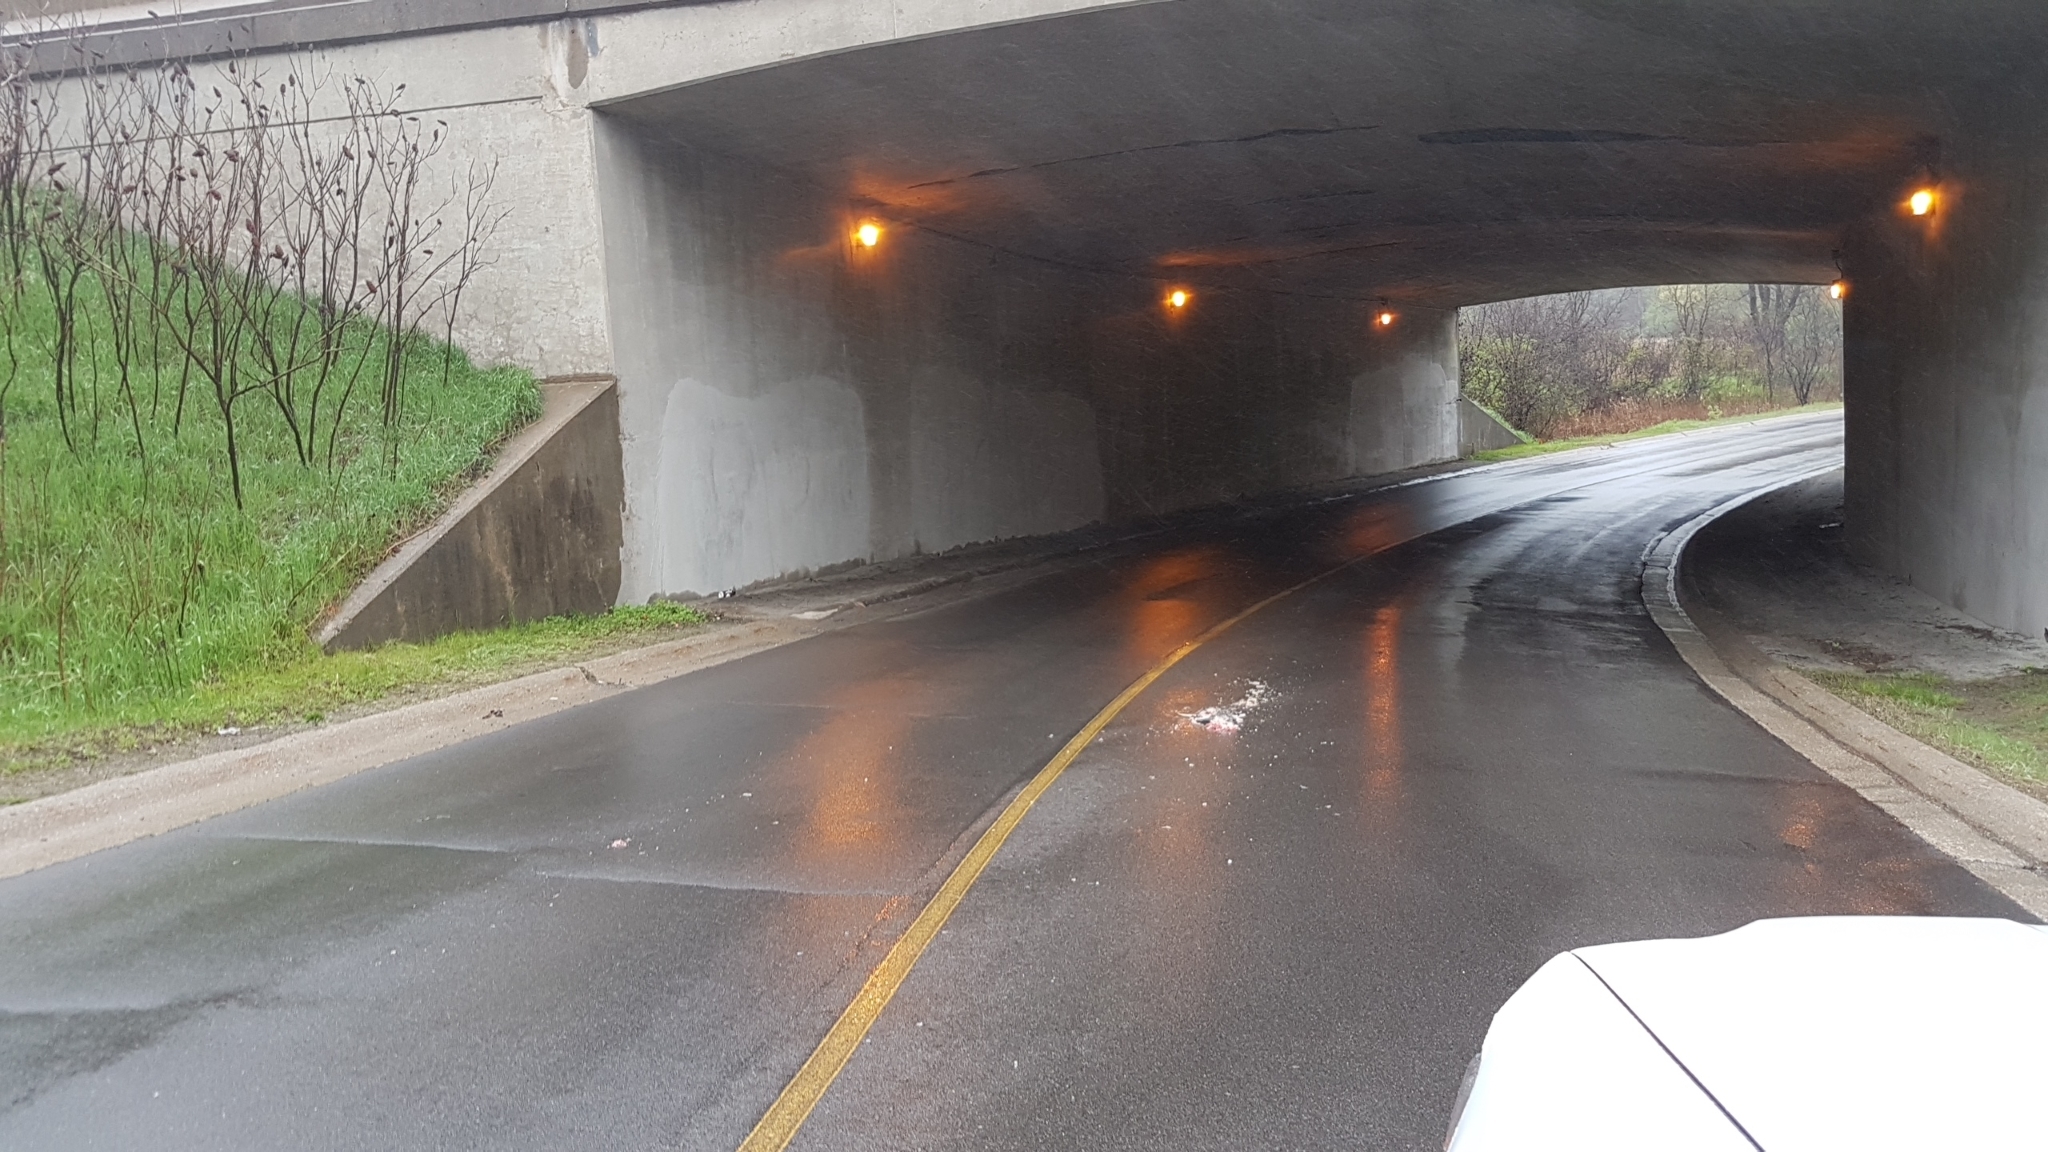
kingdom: Animalia
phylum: Chordata
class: Mammalia
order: Didelphimorphia
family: Didelphidae
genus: Didelphis
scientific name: Didelphis virginiana
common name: Virginia opossum
